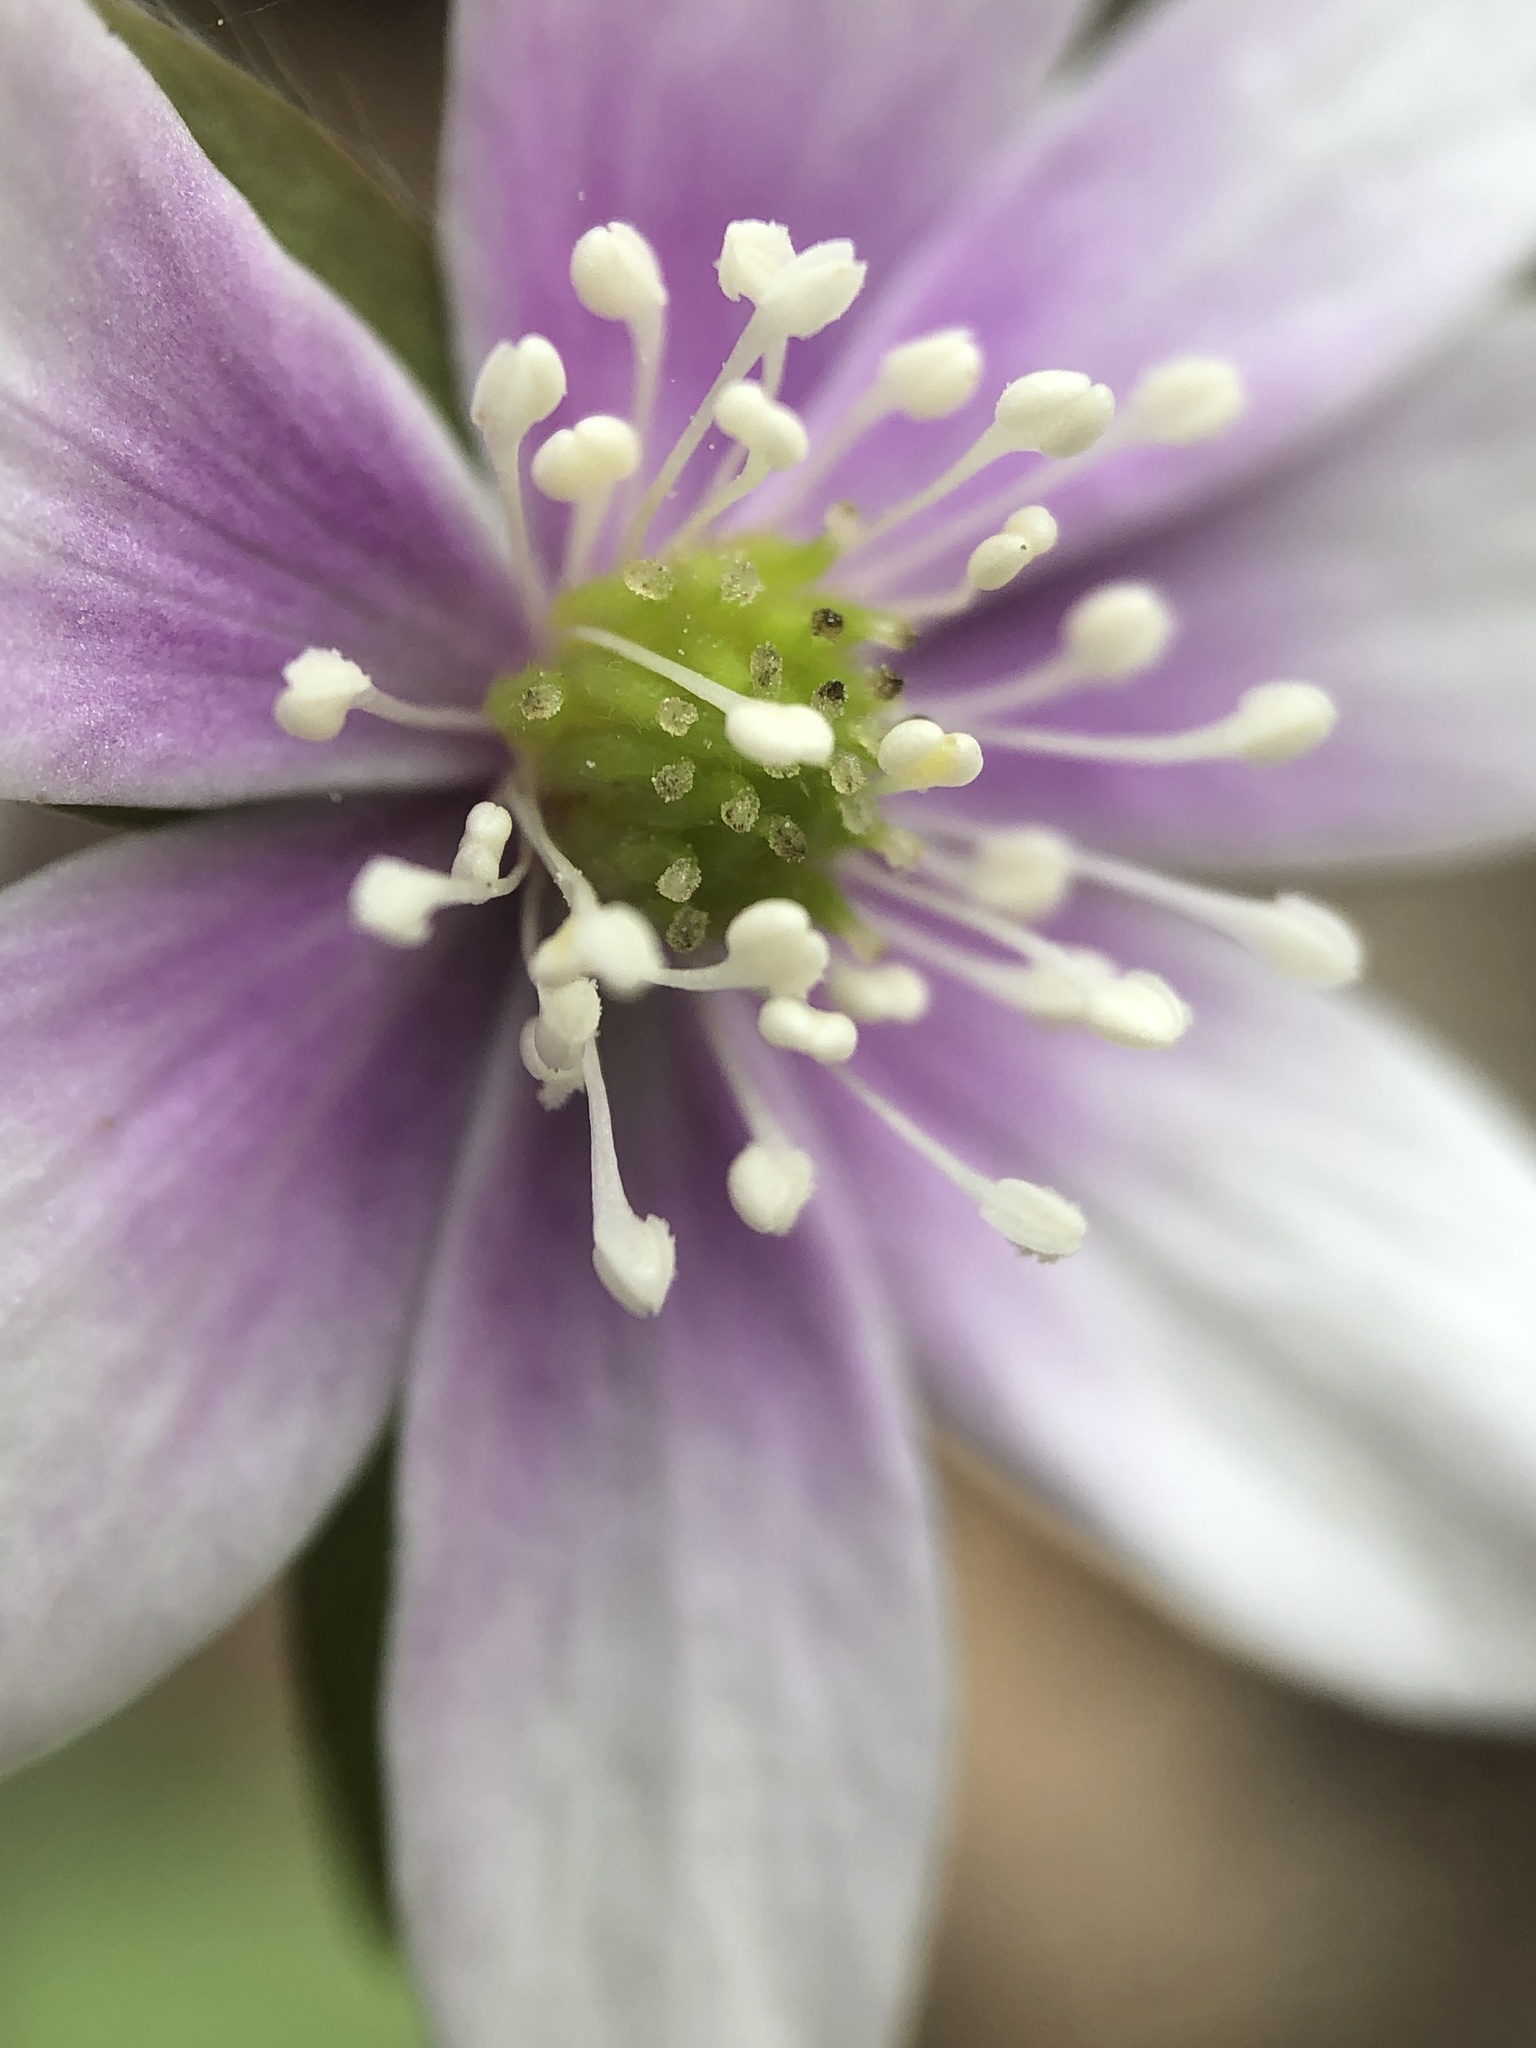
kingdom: Plantae
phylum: Tracheophyta
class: Magnoliopsida
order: Ranunculales
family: Ranunculaceae
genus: Hepatica
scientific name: Hepatica acutiloba
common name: Sharp-lobed hepatica
